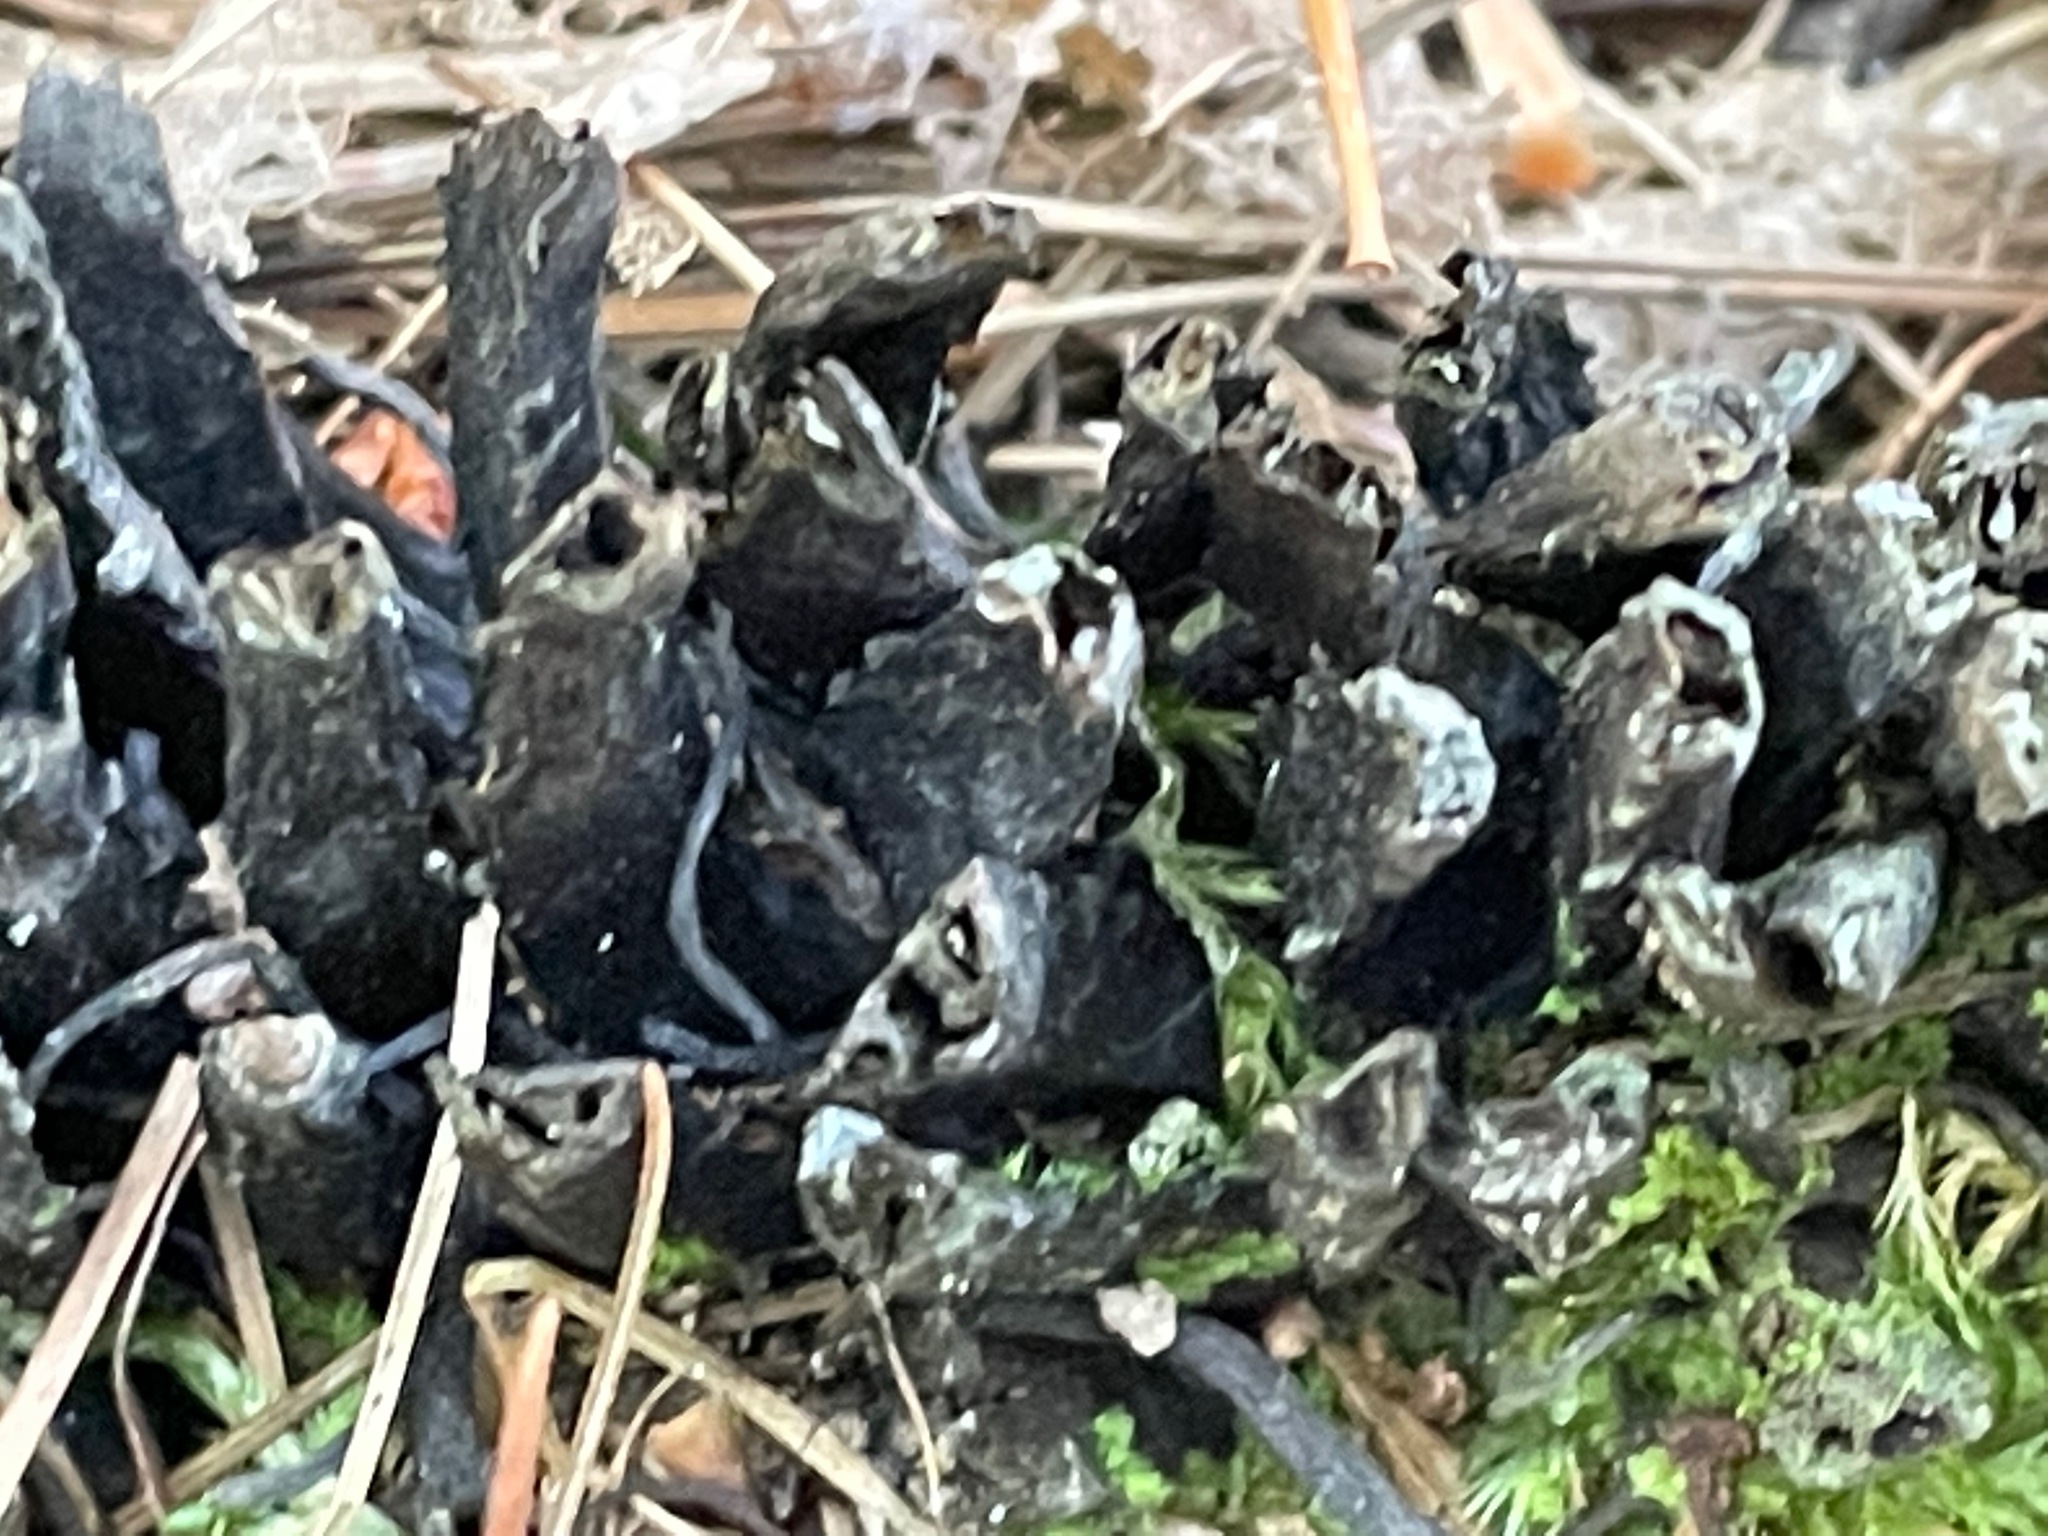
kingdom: Plantae
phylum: Tracheophyta
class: Magnoliopsida
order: Lamiales
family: Orobanchaceae
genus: Conopholis
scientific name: Conopholis americana
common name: American cancer-root
